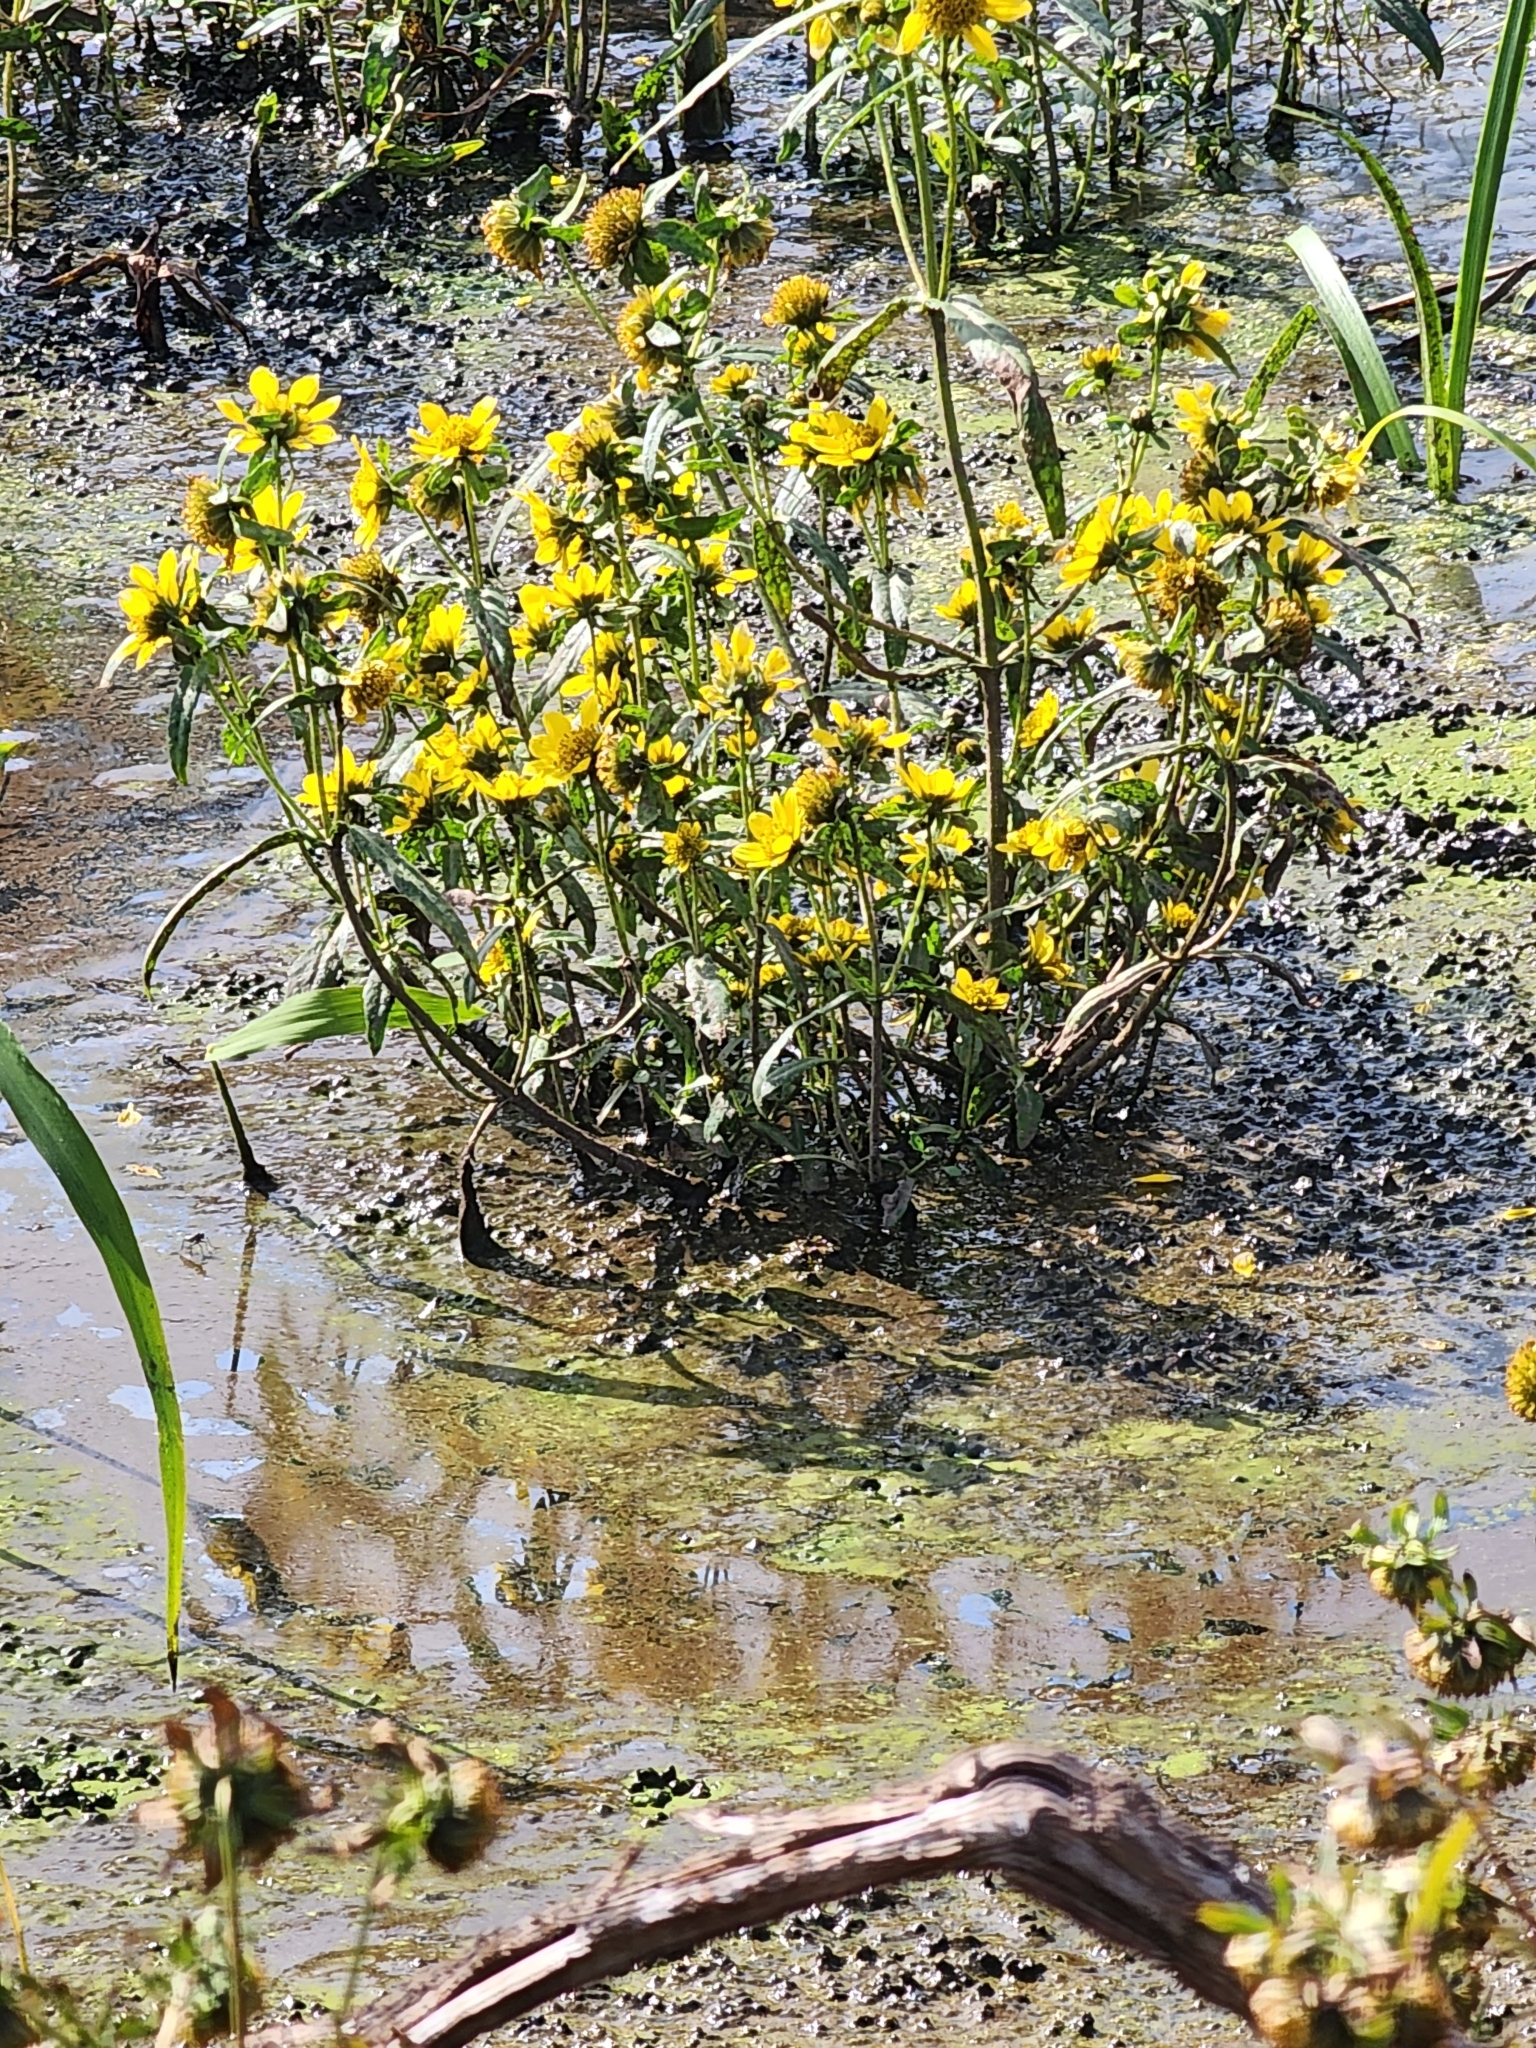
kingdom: Plantae
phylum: Tracheophyta
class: Magnoliopsida
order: Asterales
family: Asteraceae
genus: Bidens
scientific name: Bidens cernua
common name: Nodding bur-marigold
